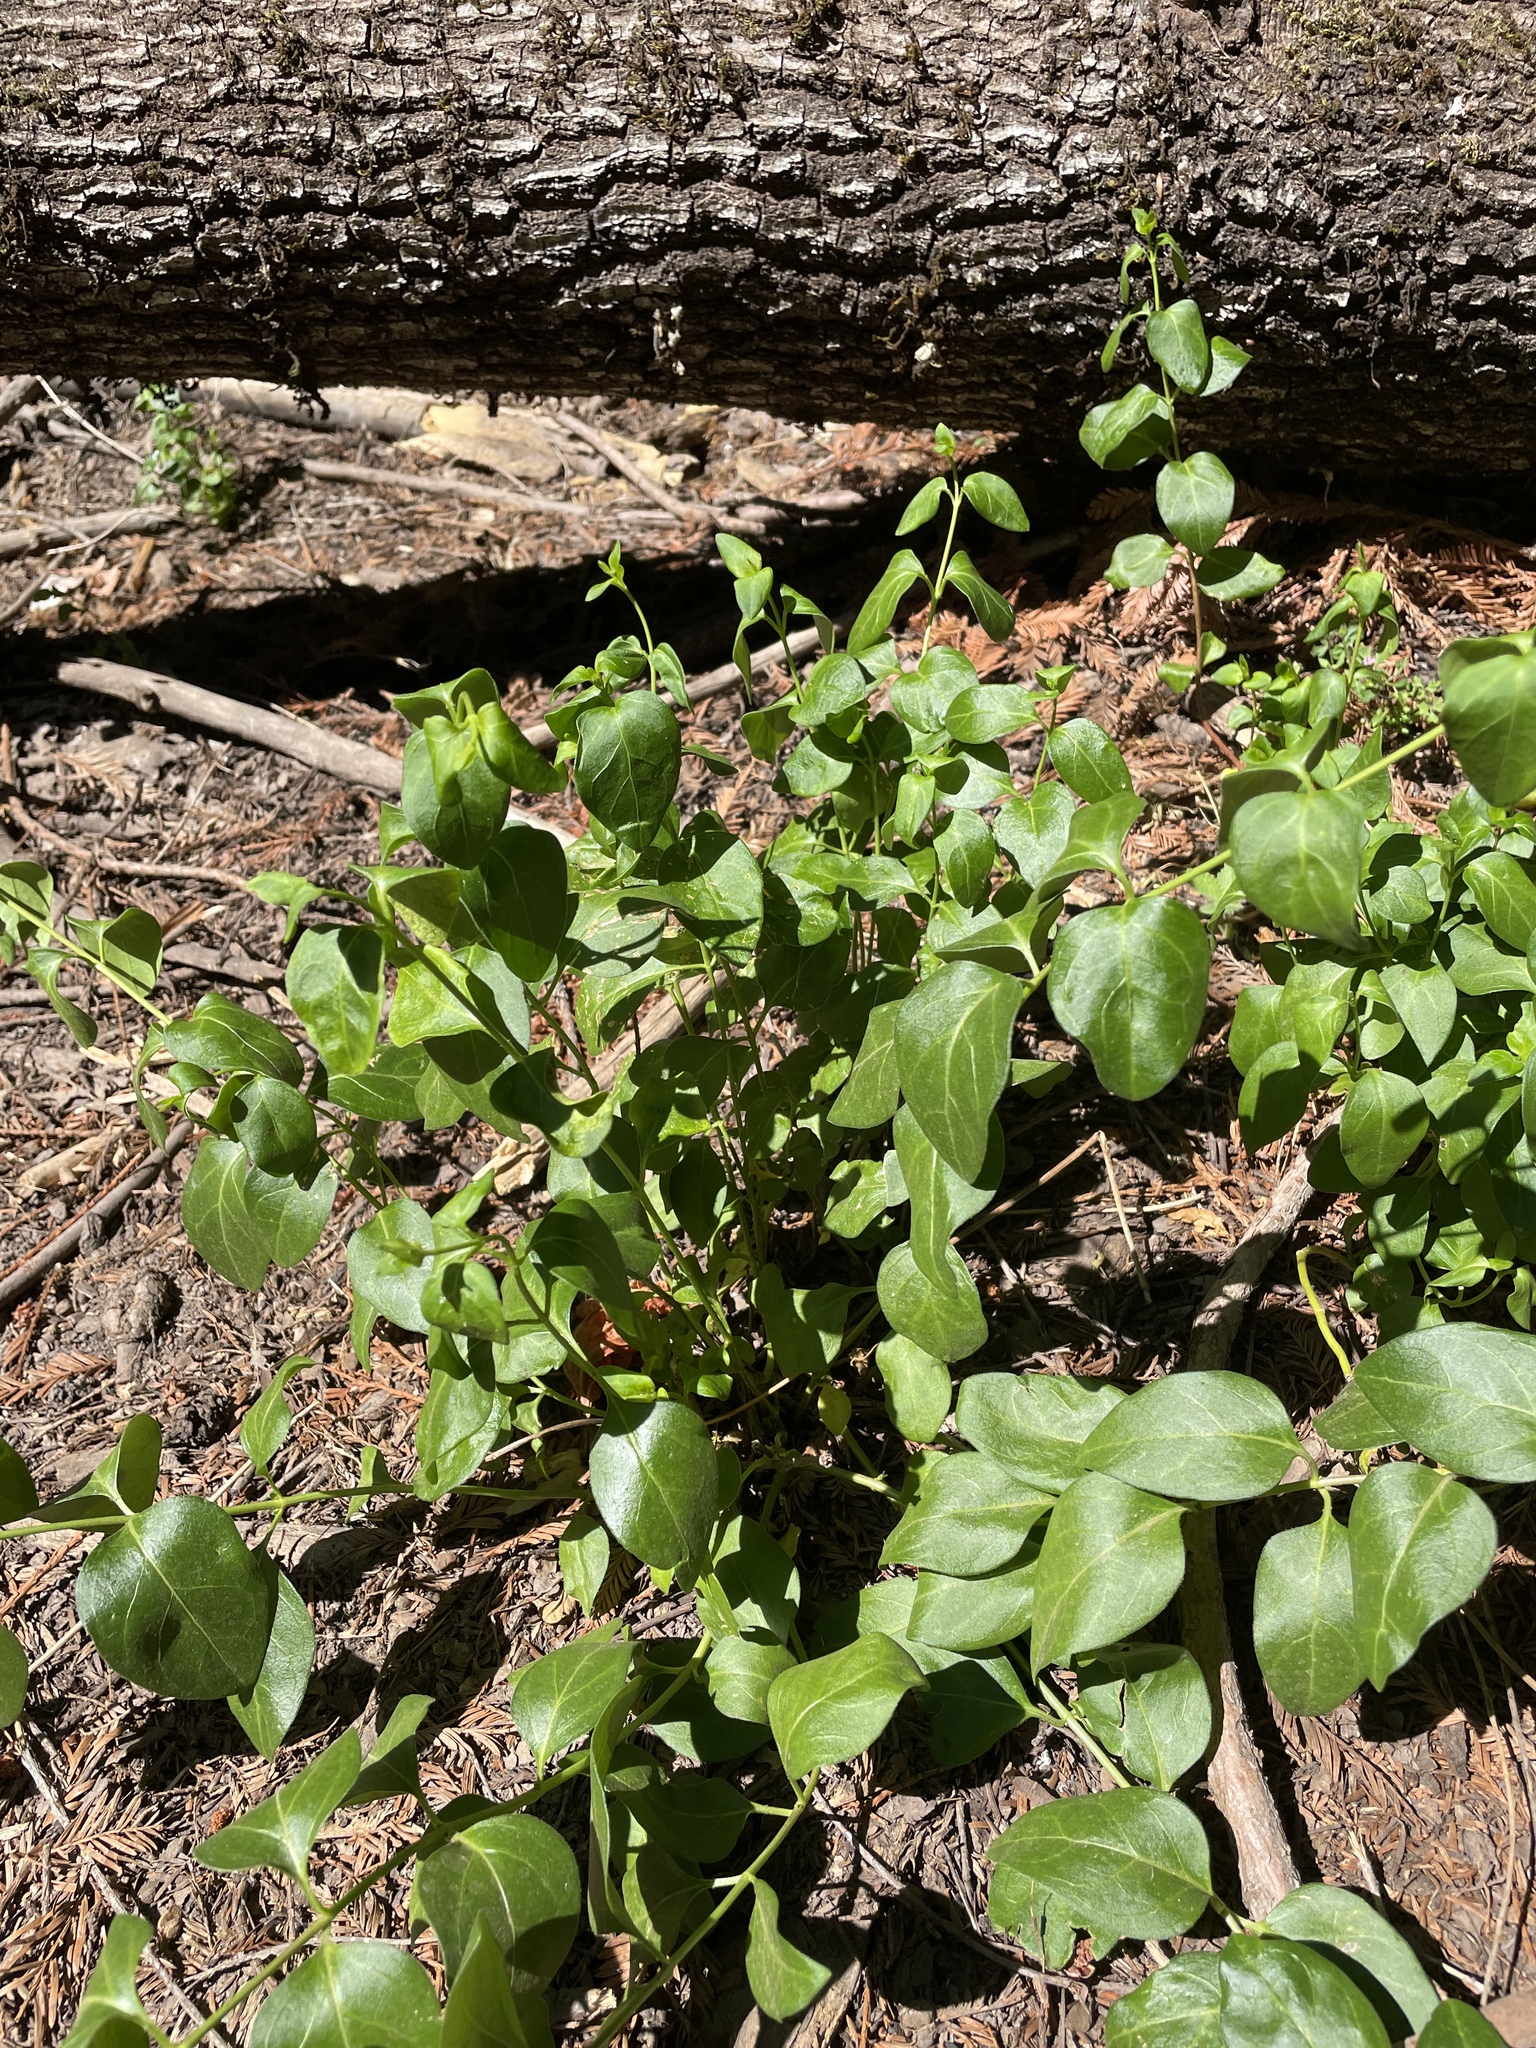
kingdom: Plantae
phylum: Tracheophyta
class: Magnoliopsida
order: Gentianales
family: Apocynaceae
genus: Vinca
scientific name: Vinca major
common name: Greater periwinkle
